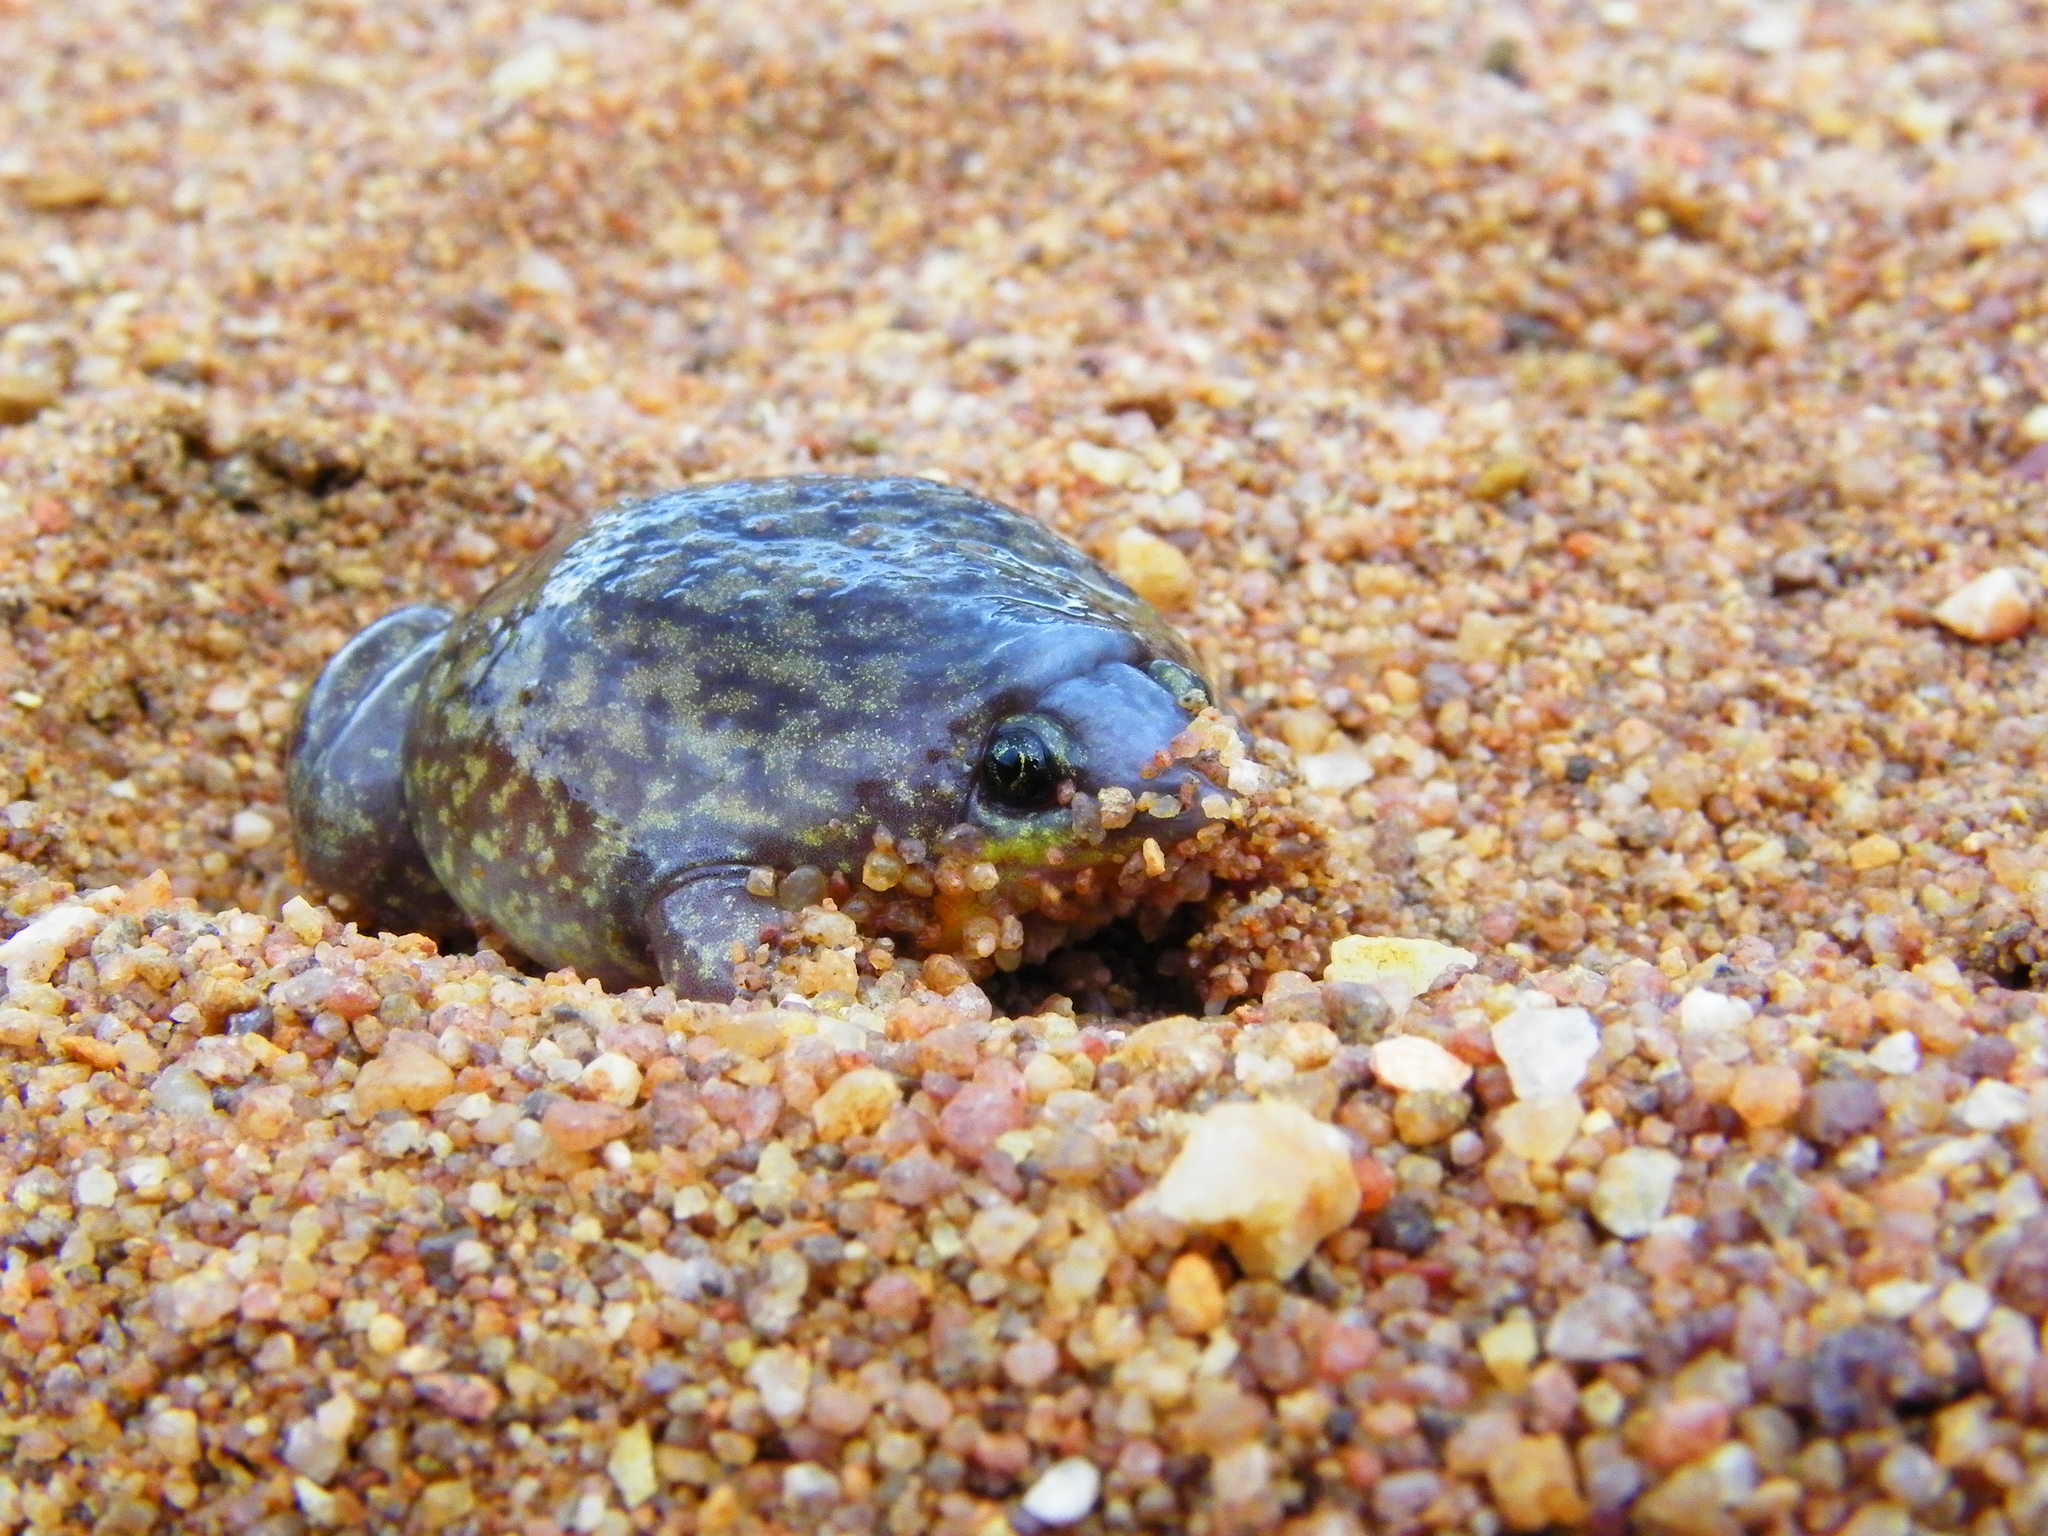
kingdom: Animalia
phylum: Chordata
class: Amphibia
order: Anura
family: Hemisotidae
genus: Hemisus
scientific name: Hemisus marmoratus
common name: Mottled shovel-nosed frog
